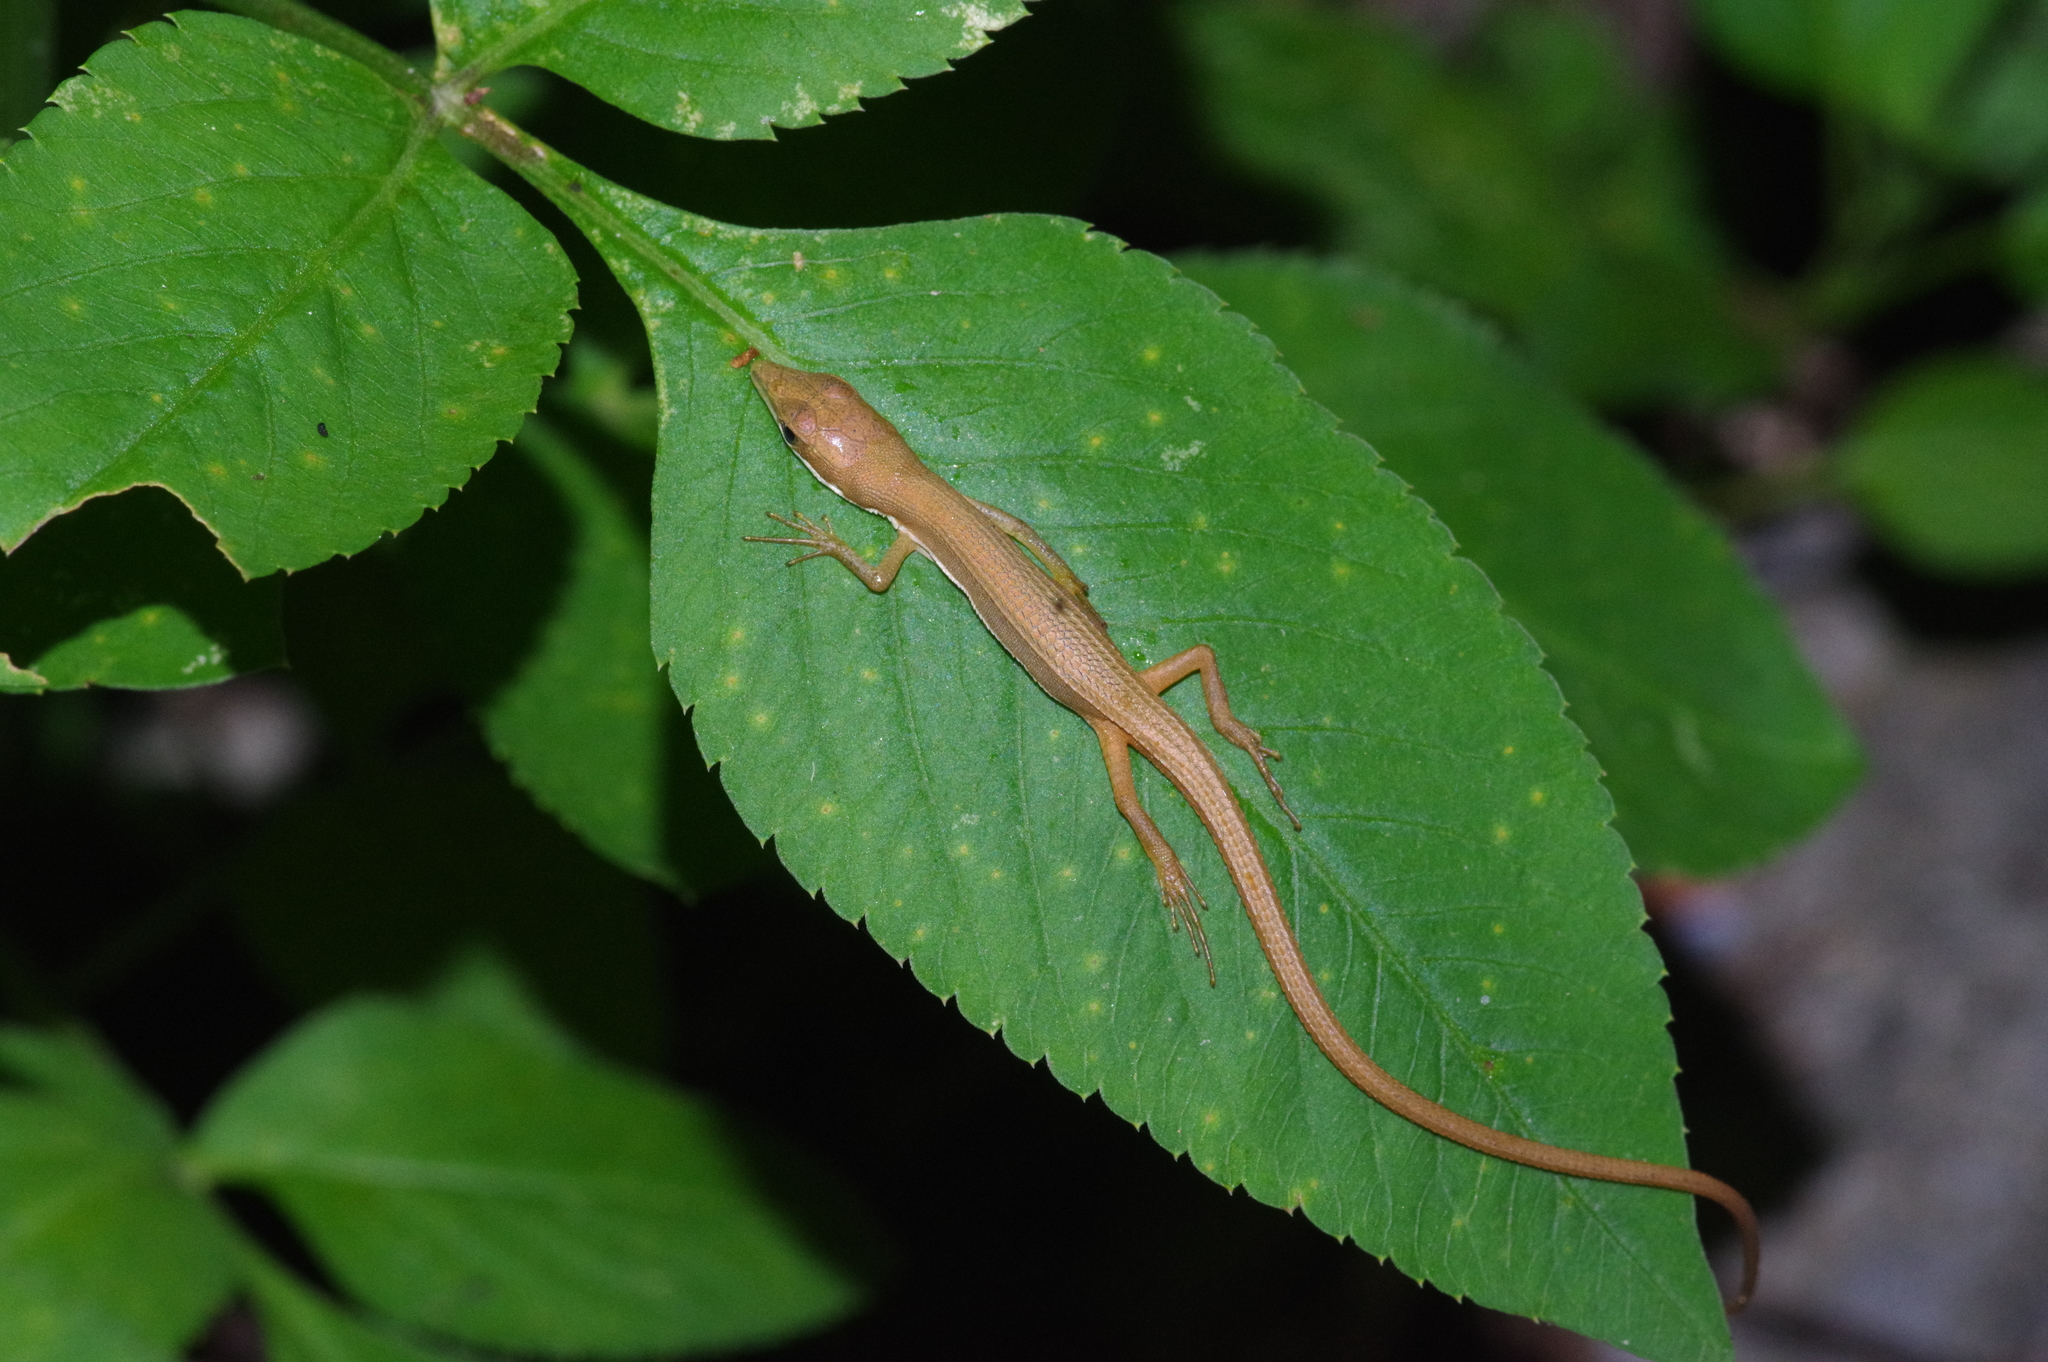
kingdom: Animalia
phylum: Chordata
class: Squamata
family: Lacertidae
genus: Takydromus
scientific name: Takydromus smaragdinus
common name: Green grass lizard
